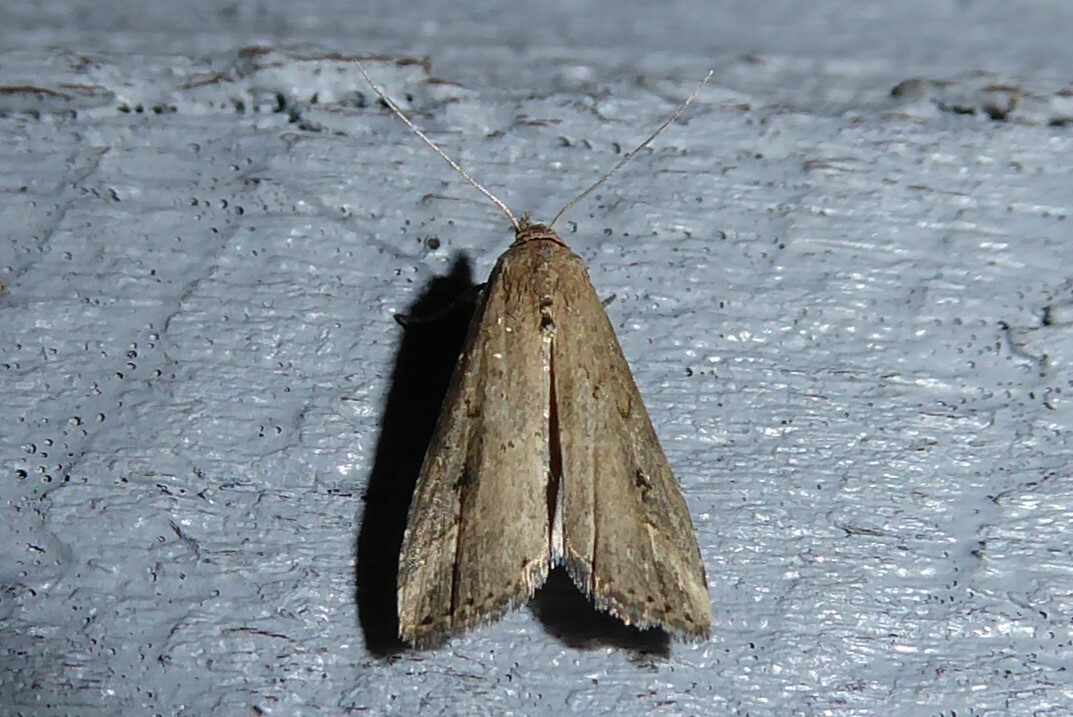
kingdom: Animalia
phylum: Arthropoda
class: Insecta
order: Lepidoptera
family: Erebidae
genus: Schrankia
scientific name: Schrankia costaestrigalis
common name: Pinion-streaked snout
